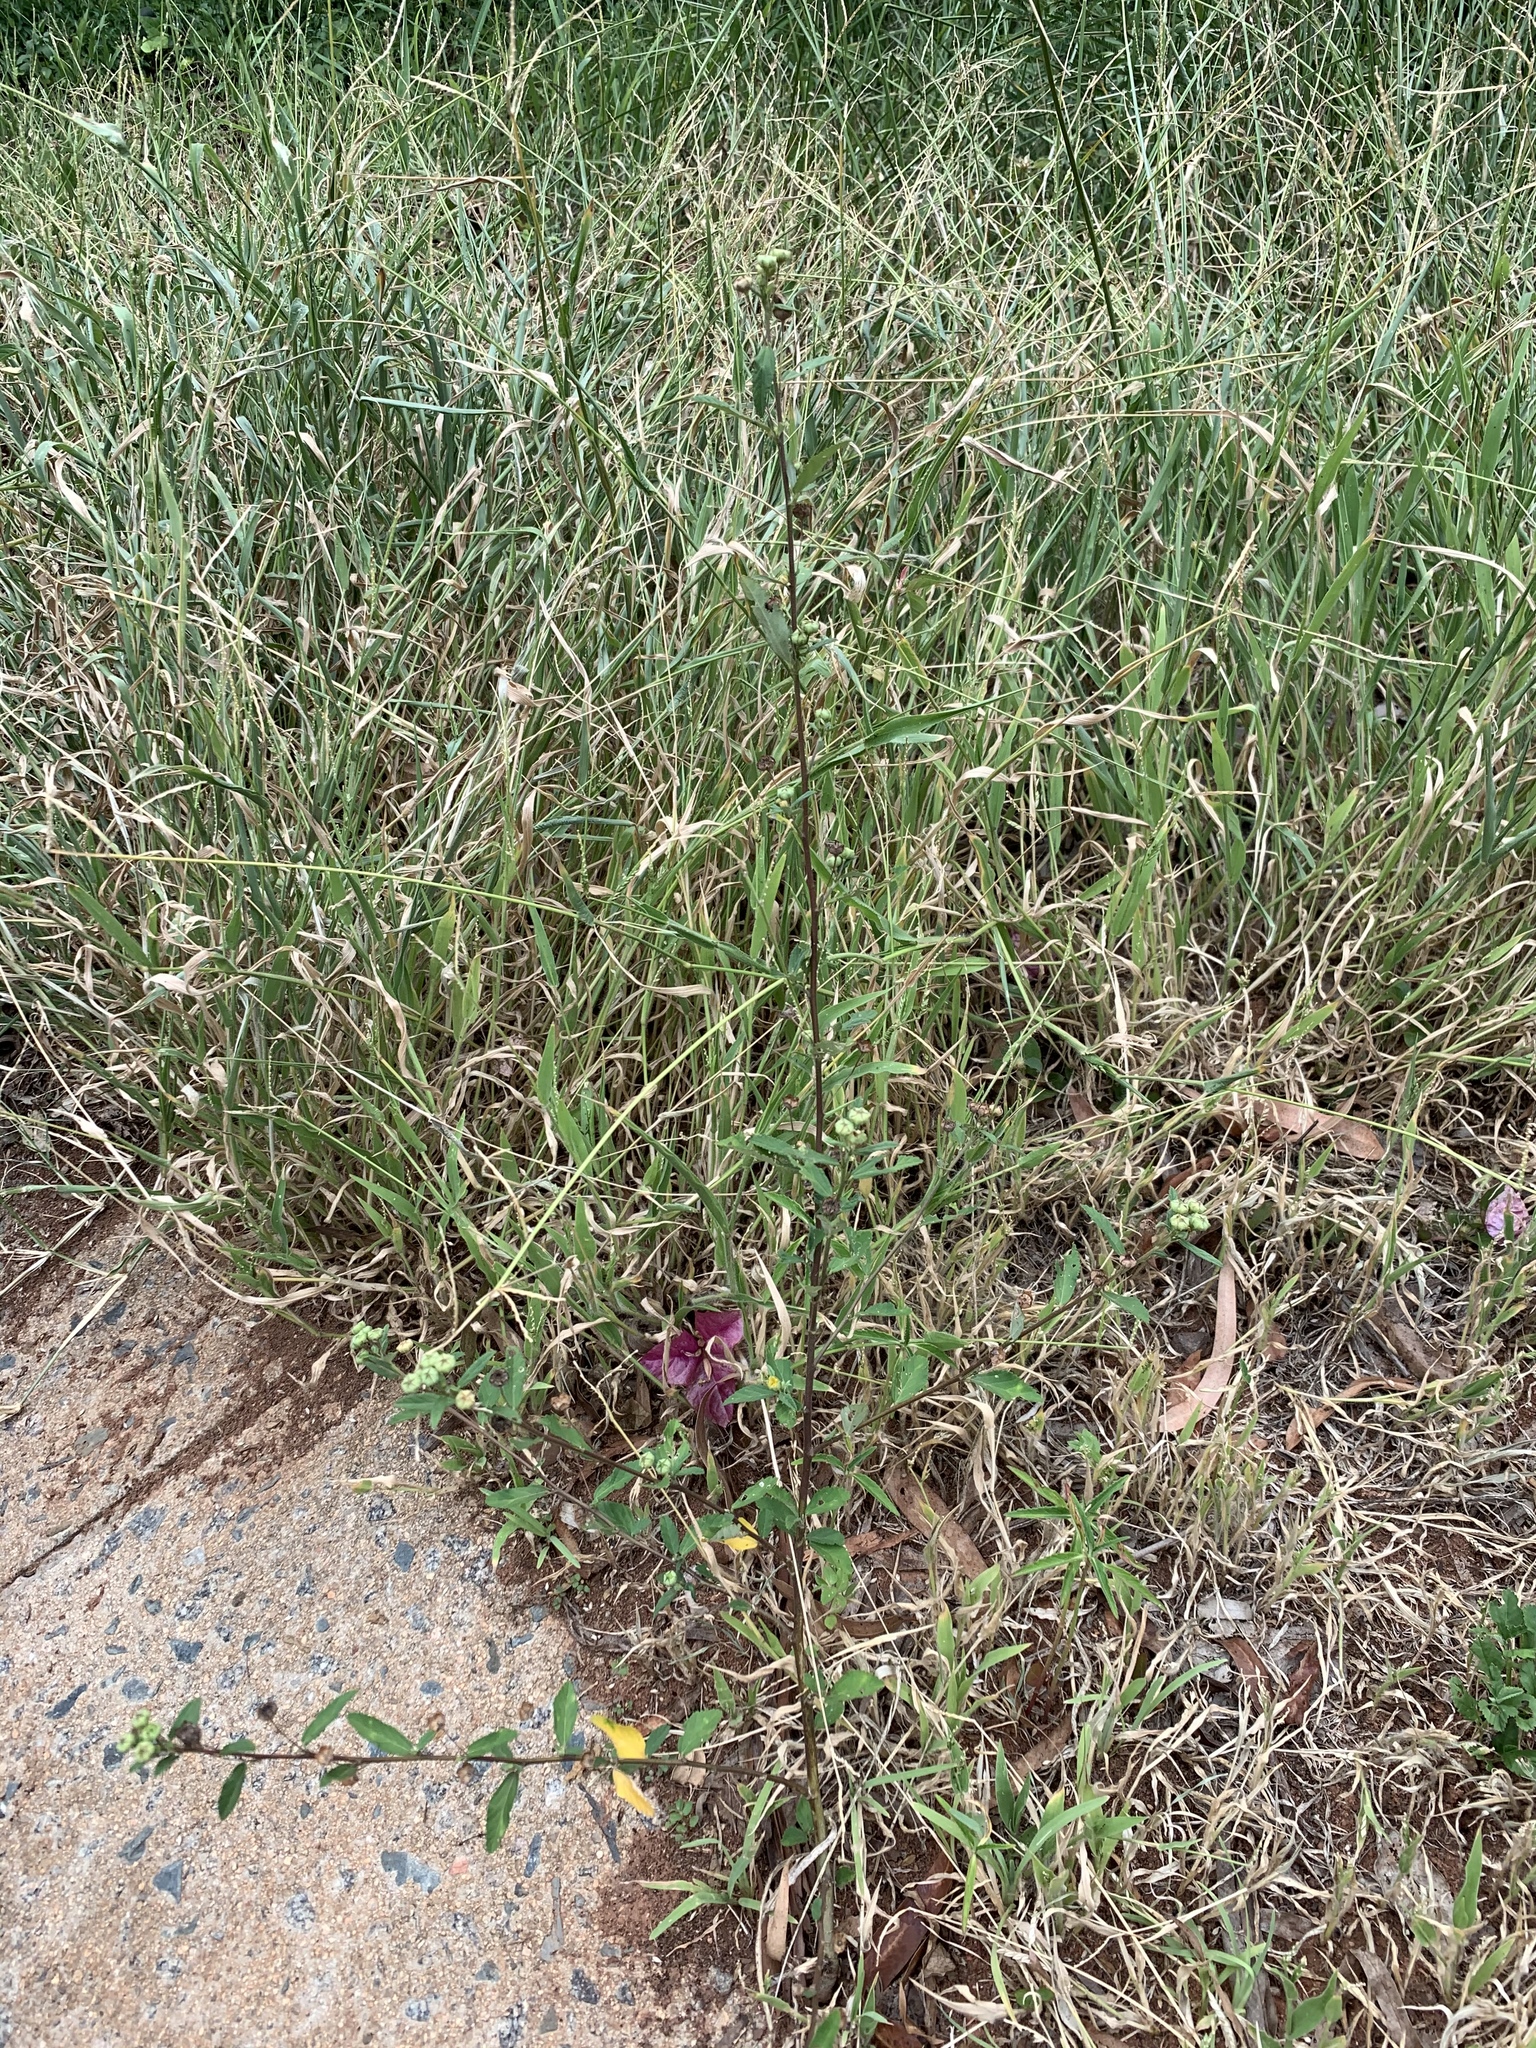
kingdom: Plantae
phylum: Tracheophyta
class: Magnoliopsida
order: Malvales
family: Malvaceae
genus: Sida
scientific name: Sida rhombifolia
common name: Queensland-hemp
